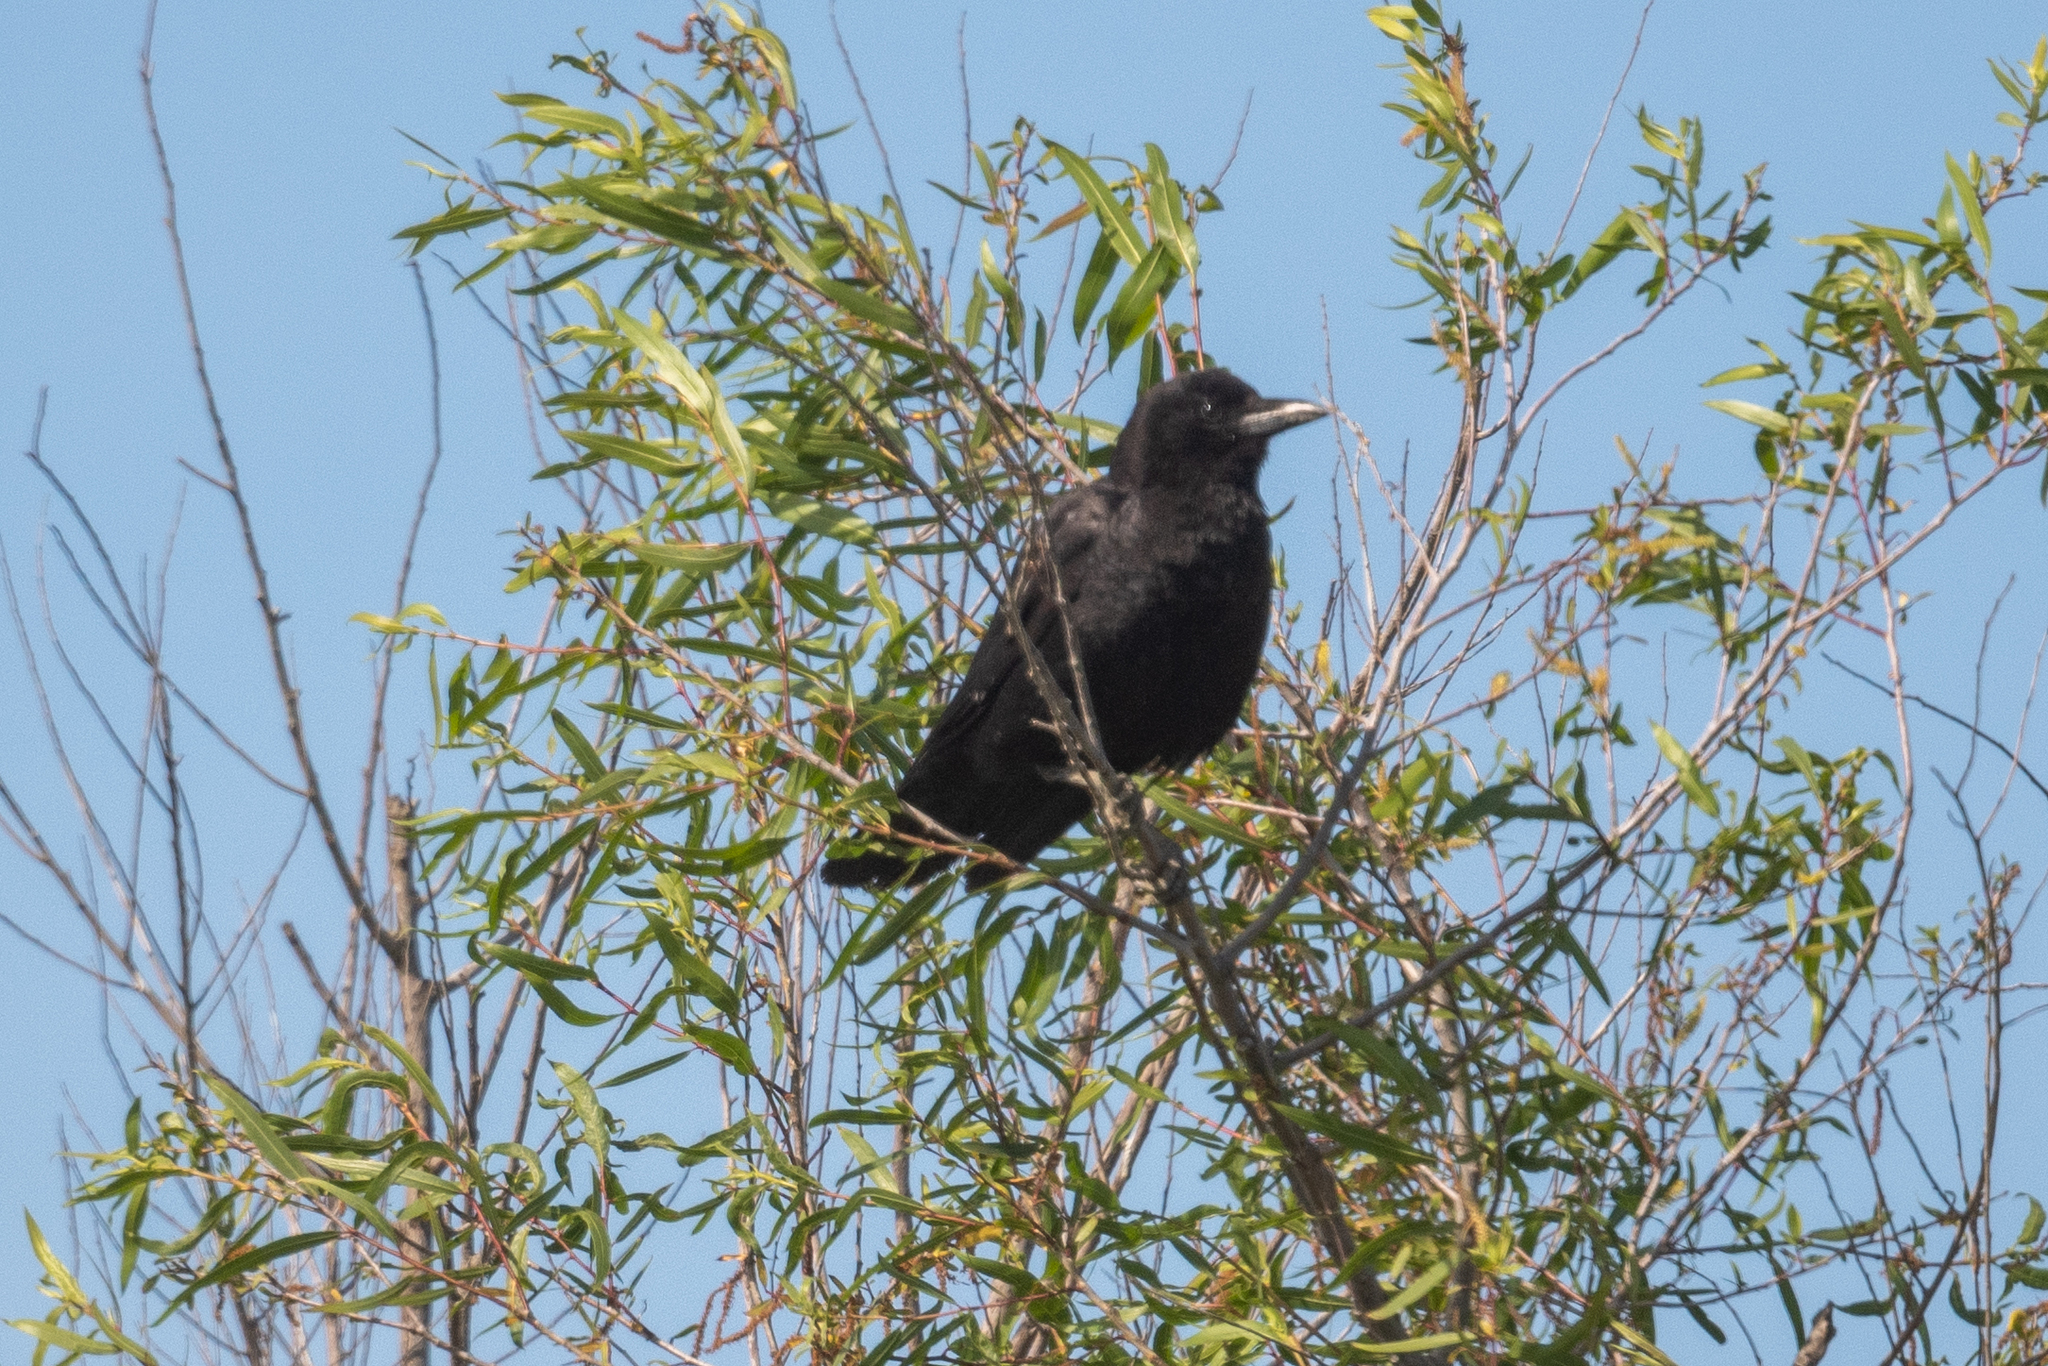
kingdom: Animalia
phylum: Chordata
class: Aves
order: Passeriformes
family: Corvidae
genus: Corvus
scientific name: Corvus brachyrhynchos
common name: American crow
